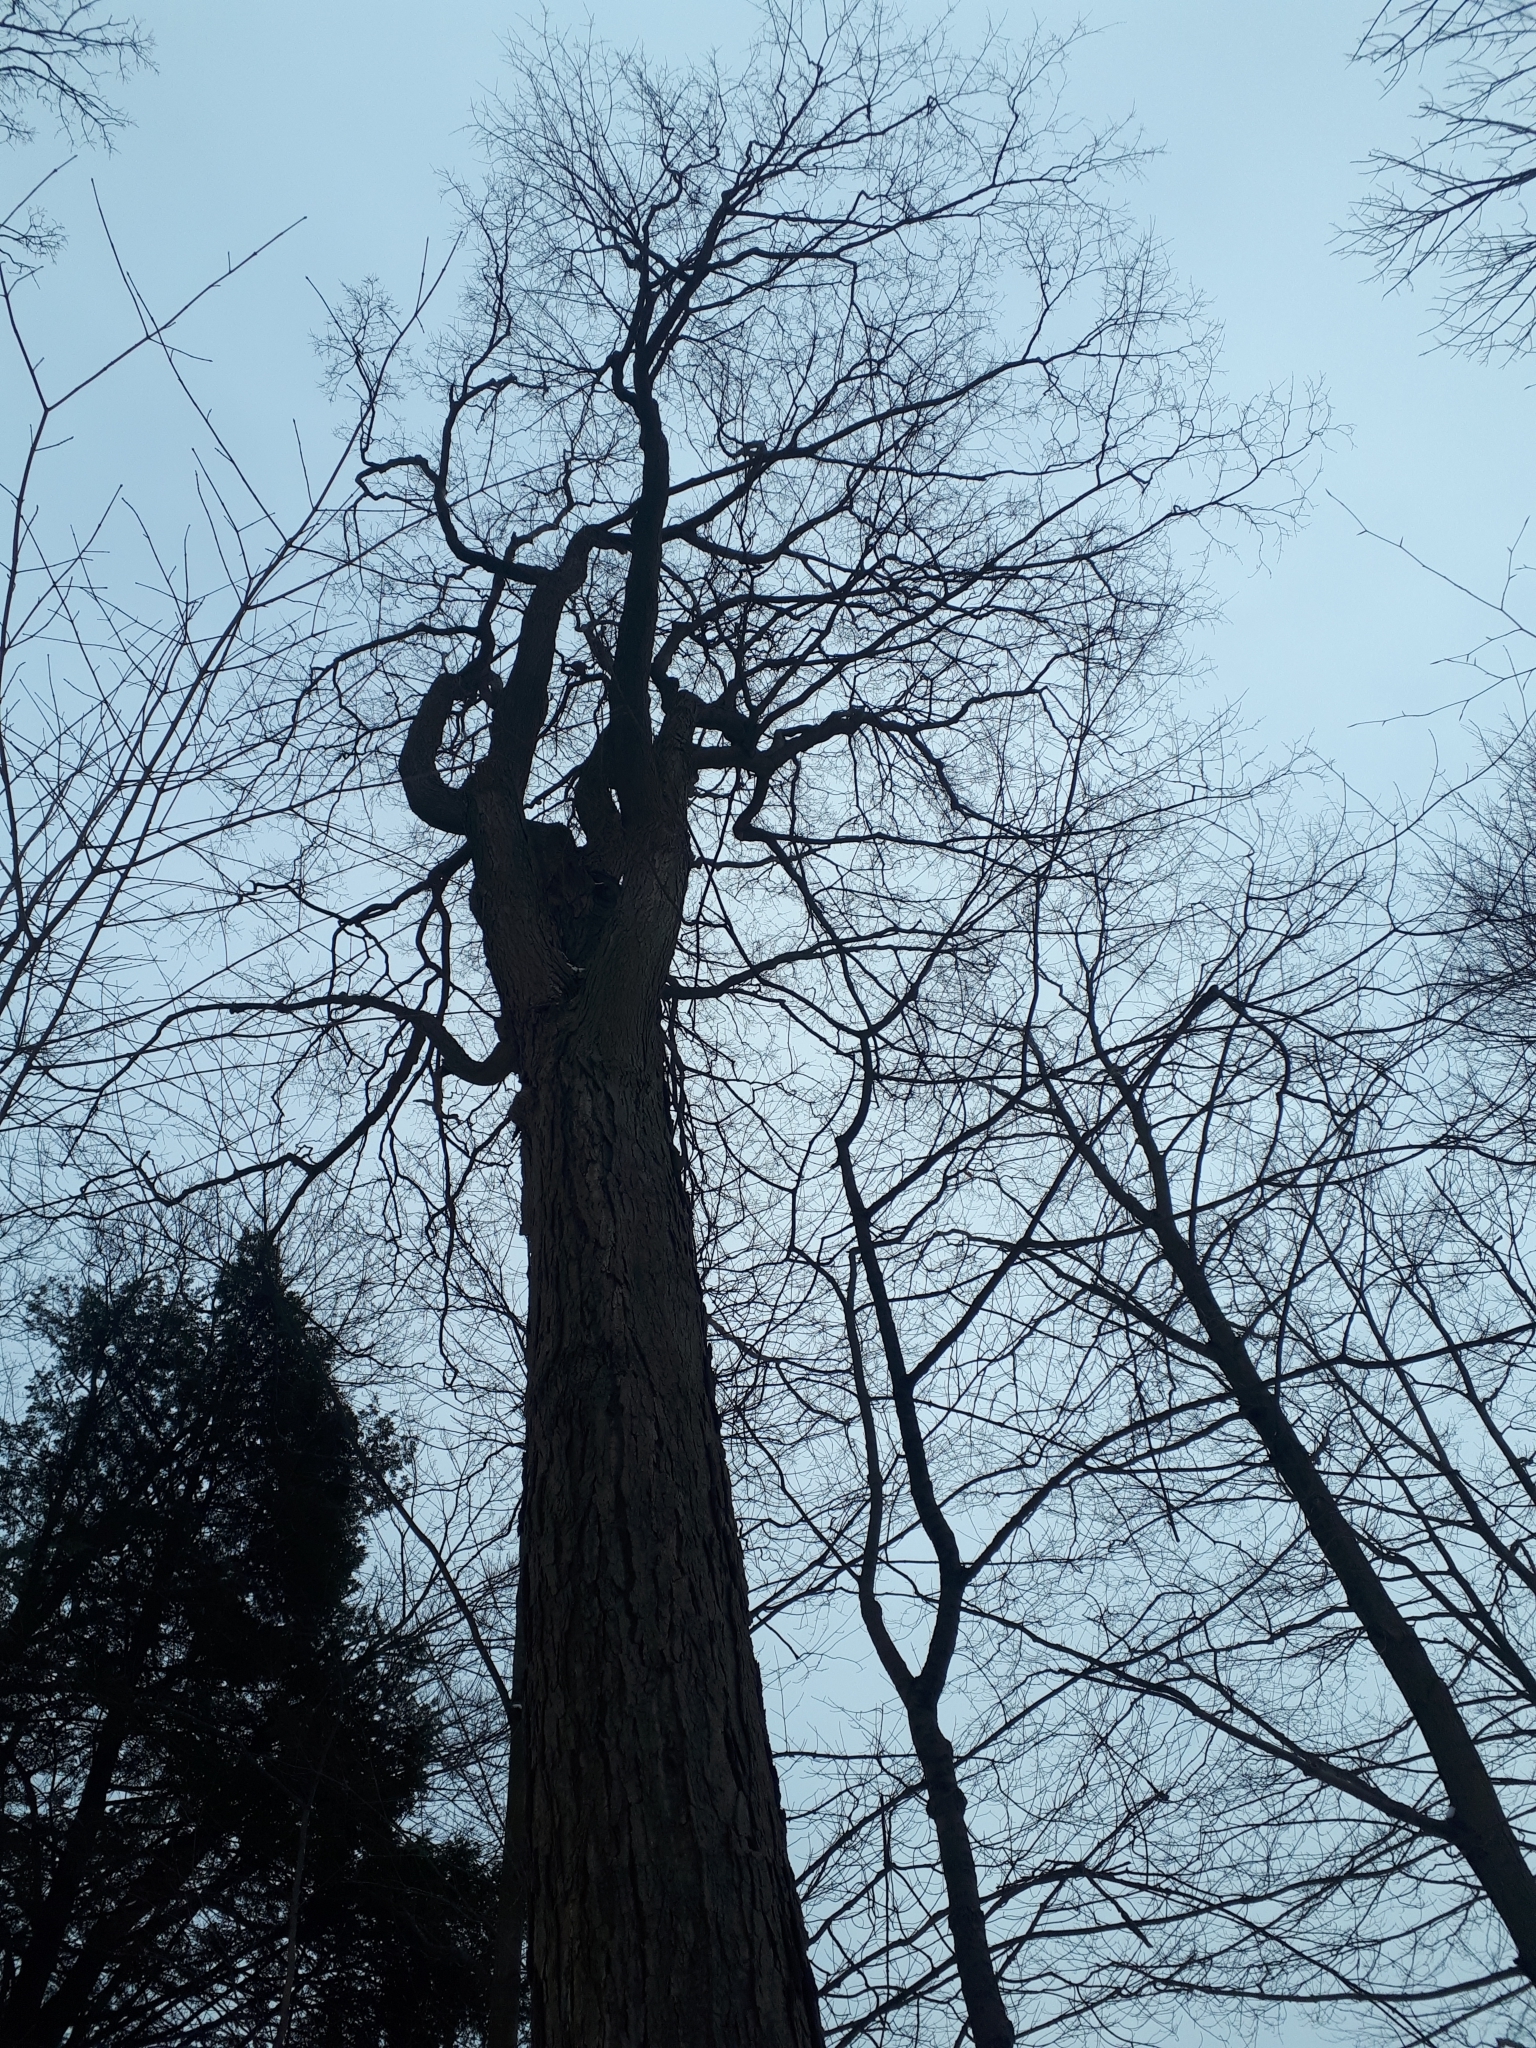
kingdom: Plantae
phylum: Tracheophyta
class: Magnoliopsida
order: Sapindales
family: Sapindaceae
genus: Acer
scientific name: Acer saccharum
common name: Sugar maple
